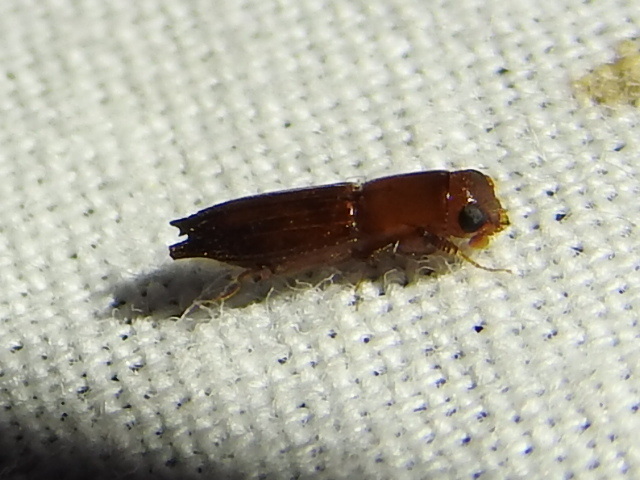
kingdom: Animalia
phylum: Arthropoda
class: Insecta
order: Coleoptera
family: Curculionidae
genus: Euplatypus
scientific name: Euplatypus compositus
